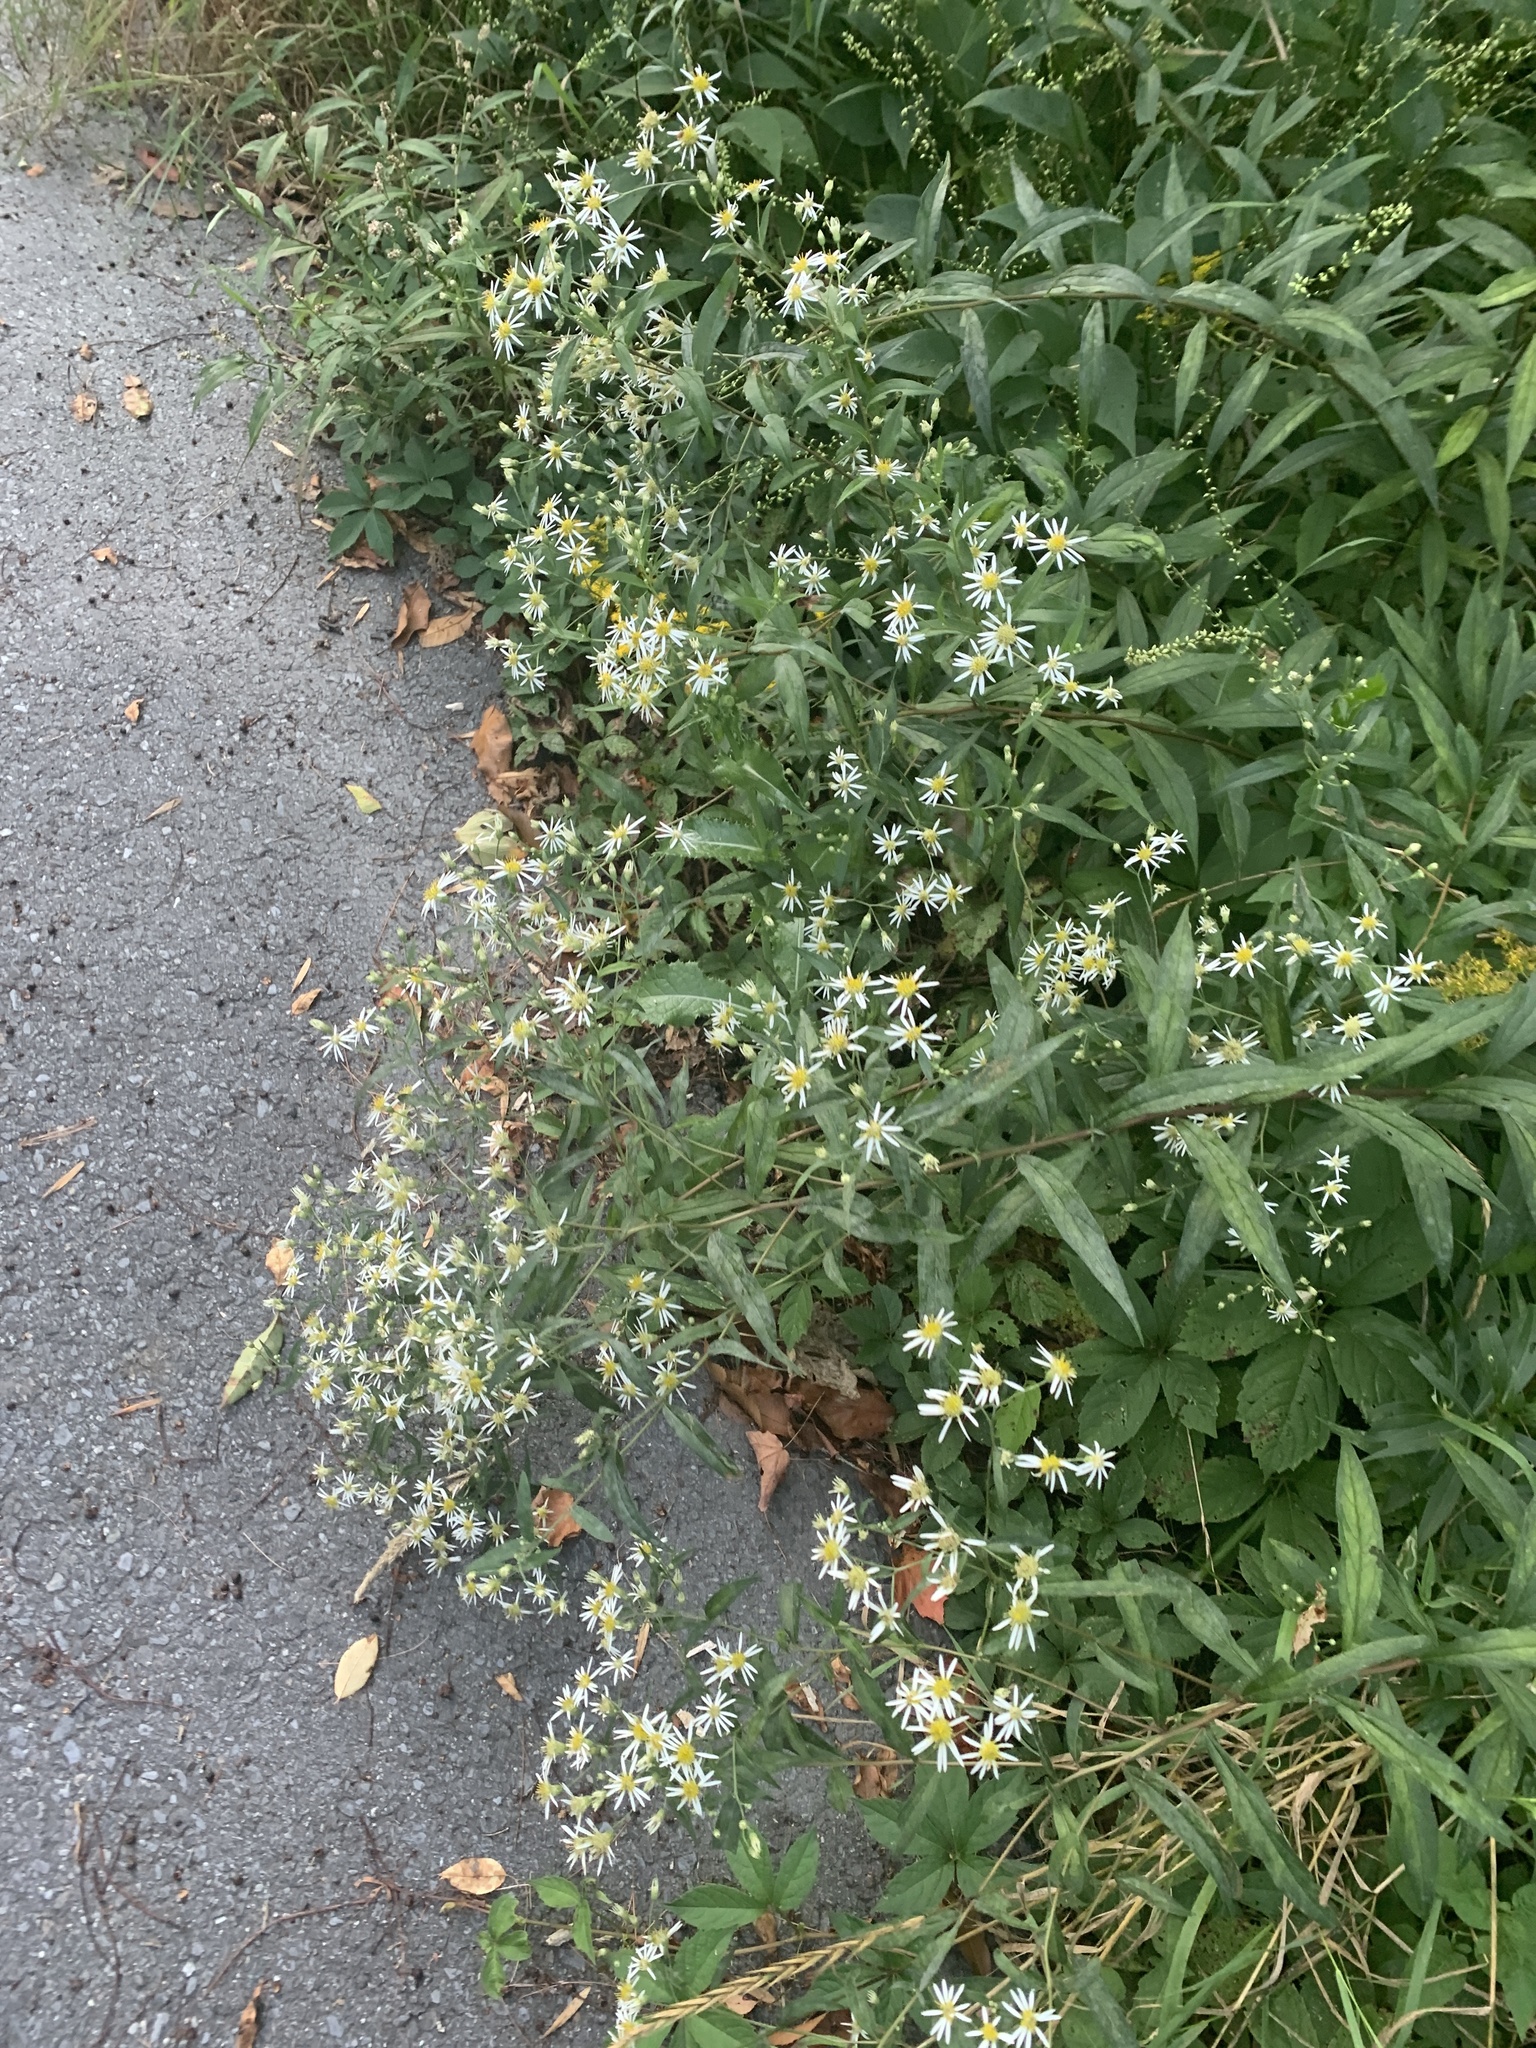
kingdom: Plantae
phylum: Tracheophyta
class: Magnoliopsida
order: Asterales
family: Asteraceae
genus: Doellingeria
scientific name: Doellingeria umbellata
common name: Flat-top white aster
